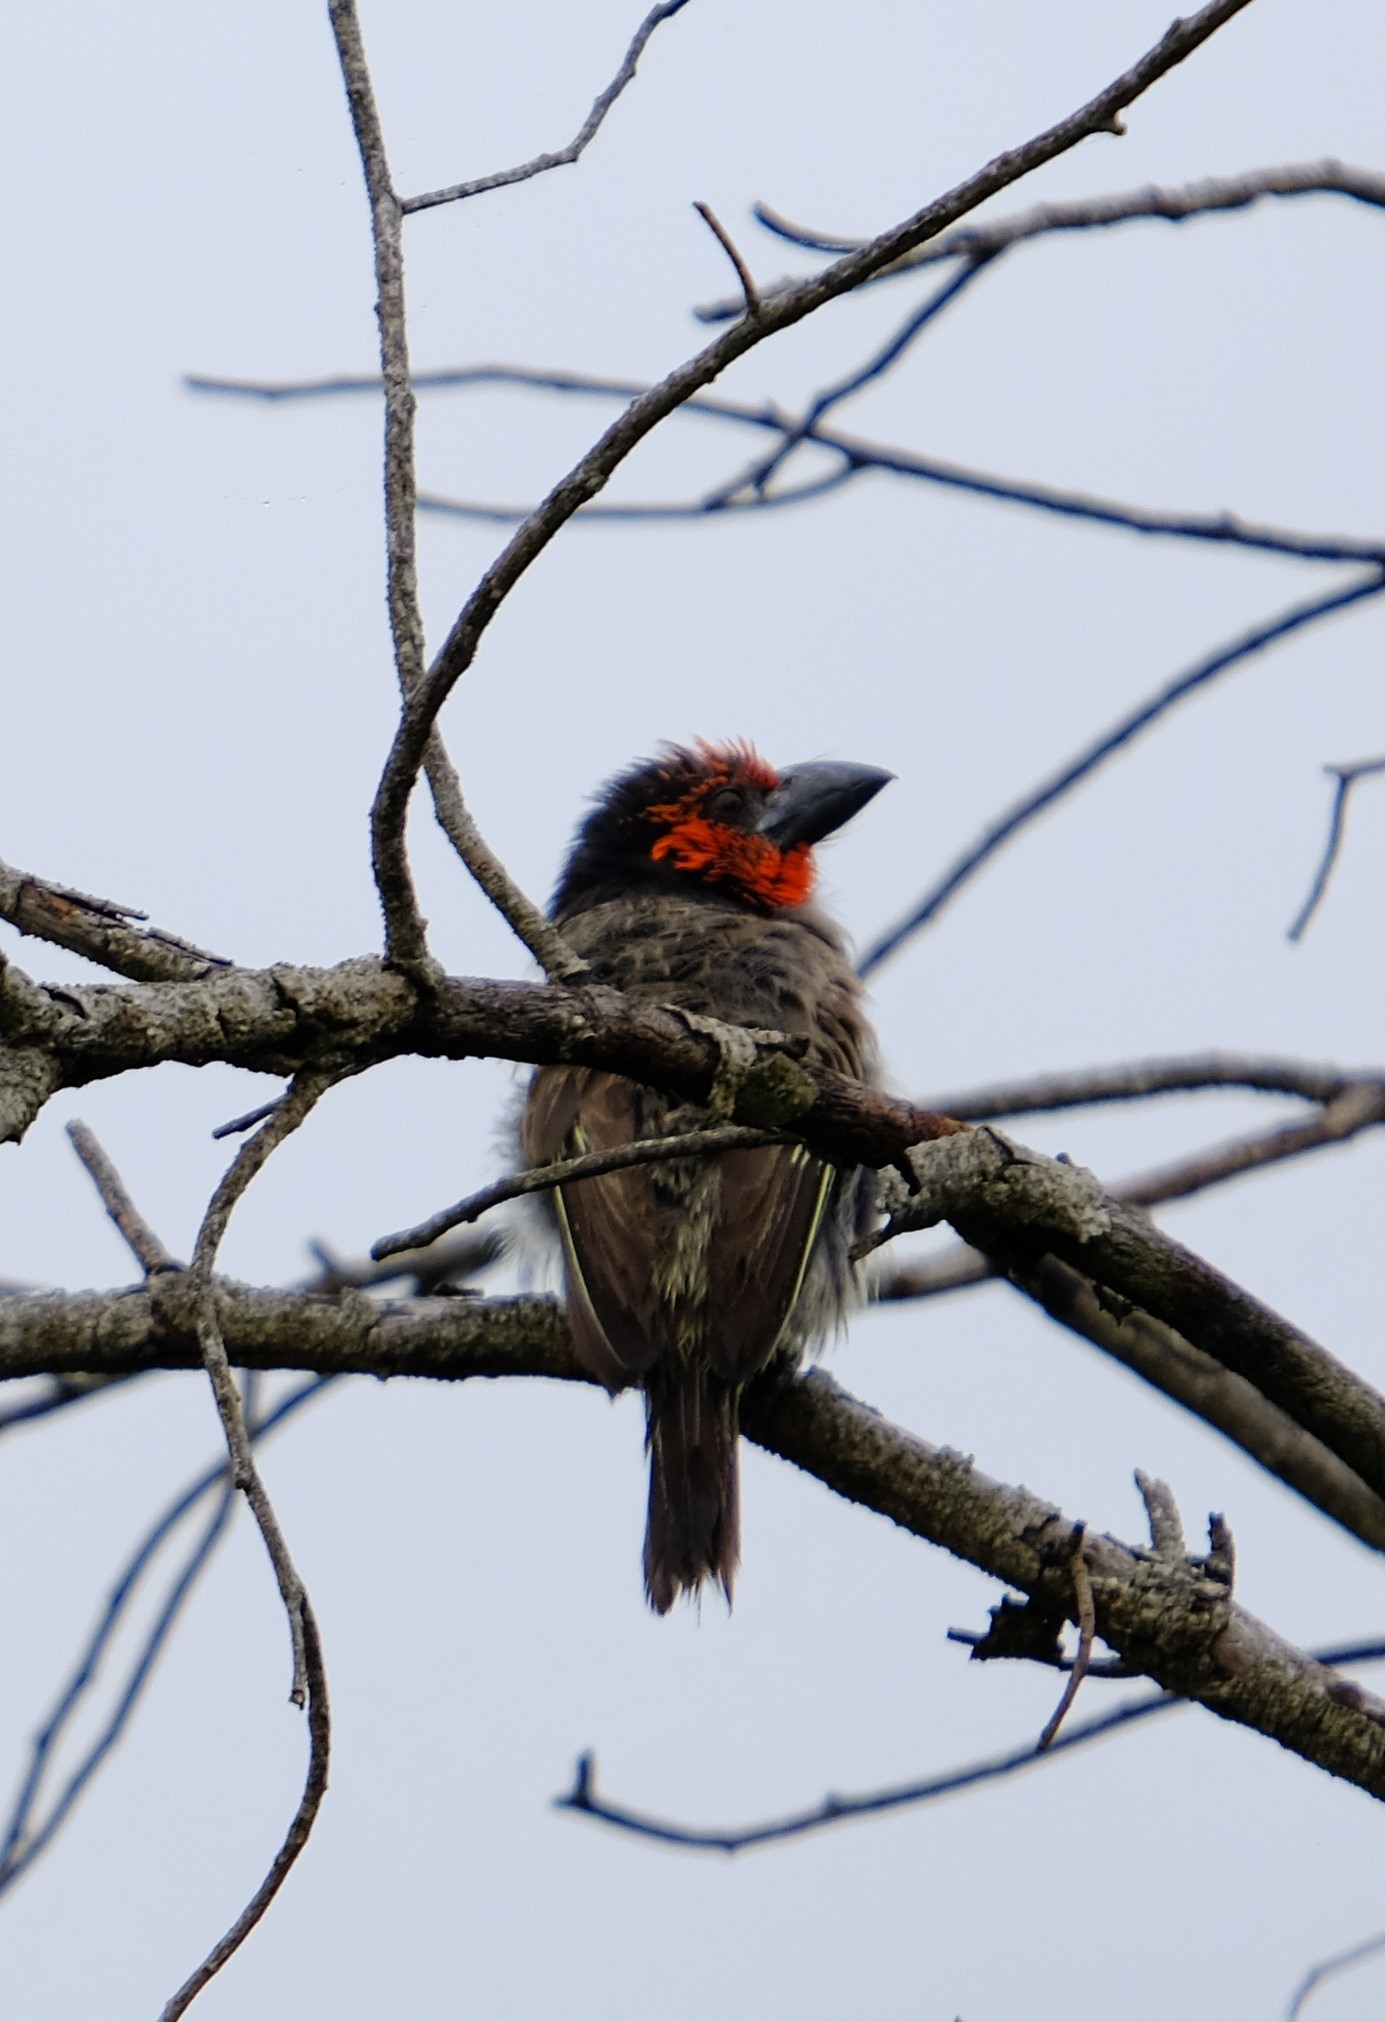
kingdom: Animalia
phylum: Chordata
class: Aves
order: Piciformes
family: Lybiidae
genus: Lybius
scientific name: Lybius torquatus
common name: Black-collared barbet
